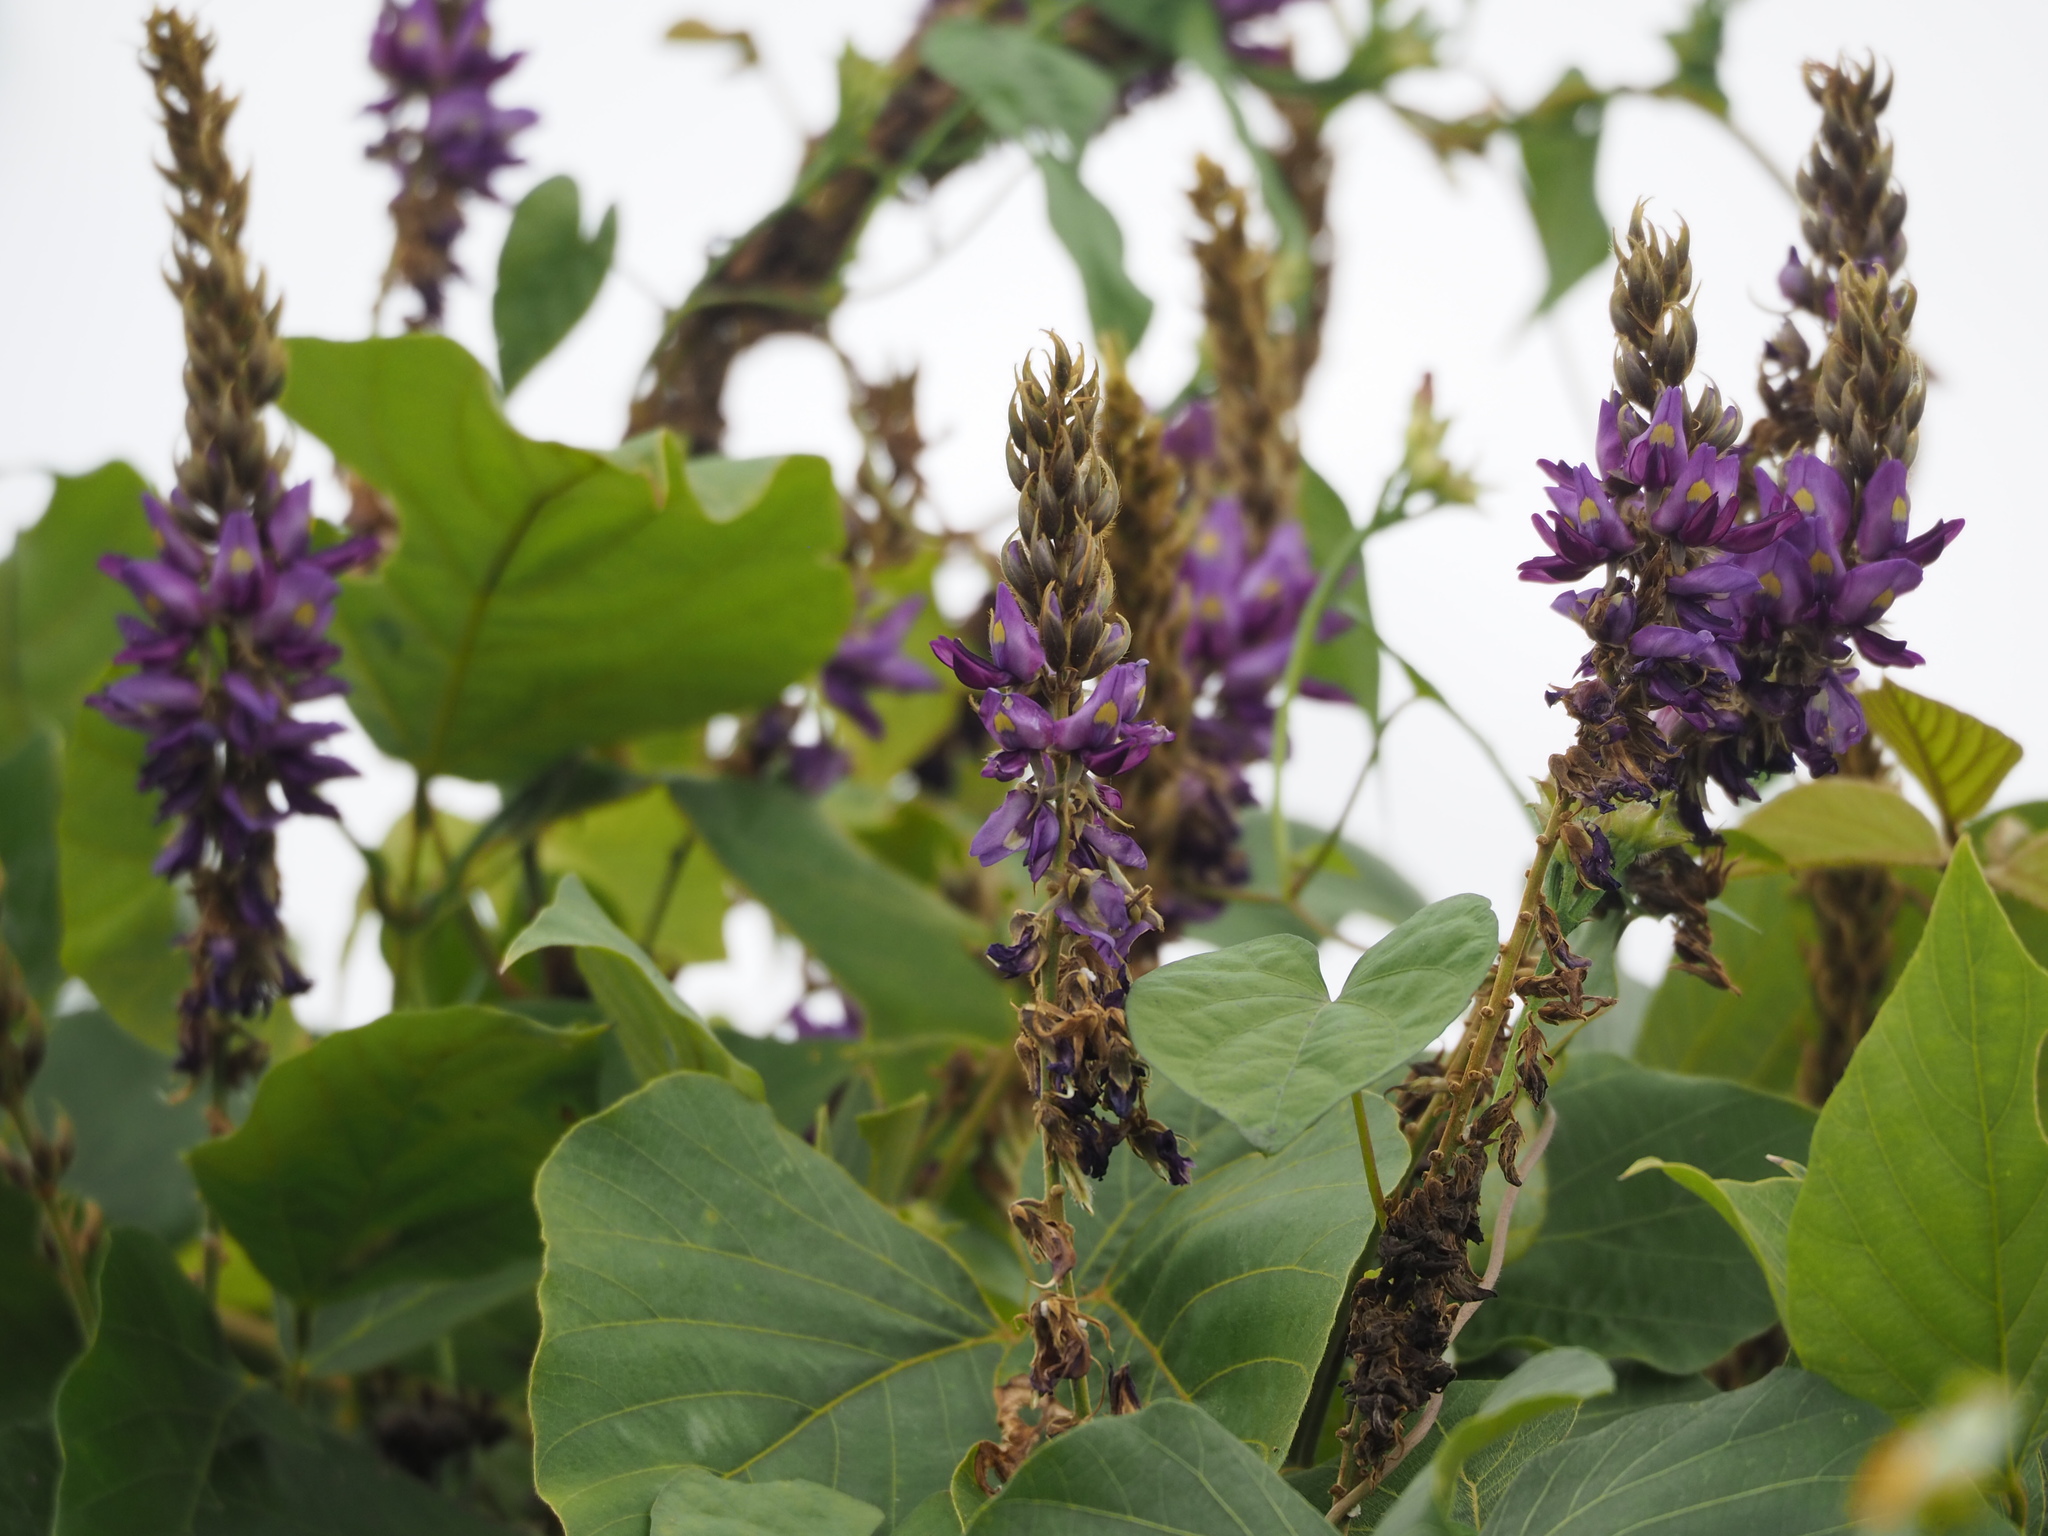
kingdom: Plantae
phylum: Tracheophyta
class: Magnoliopsida
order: Fabales
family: Fabaceae
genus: Pueraria
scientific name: Pueraria montana
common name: Kudzu
